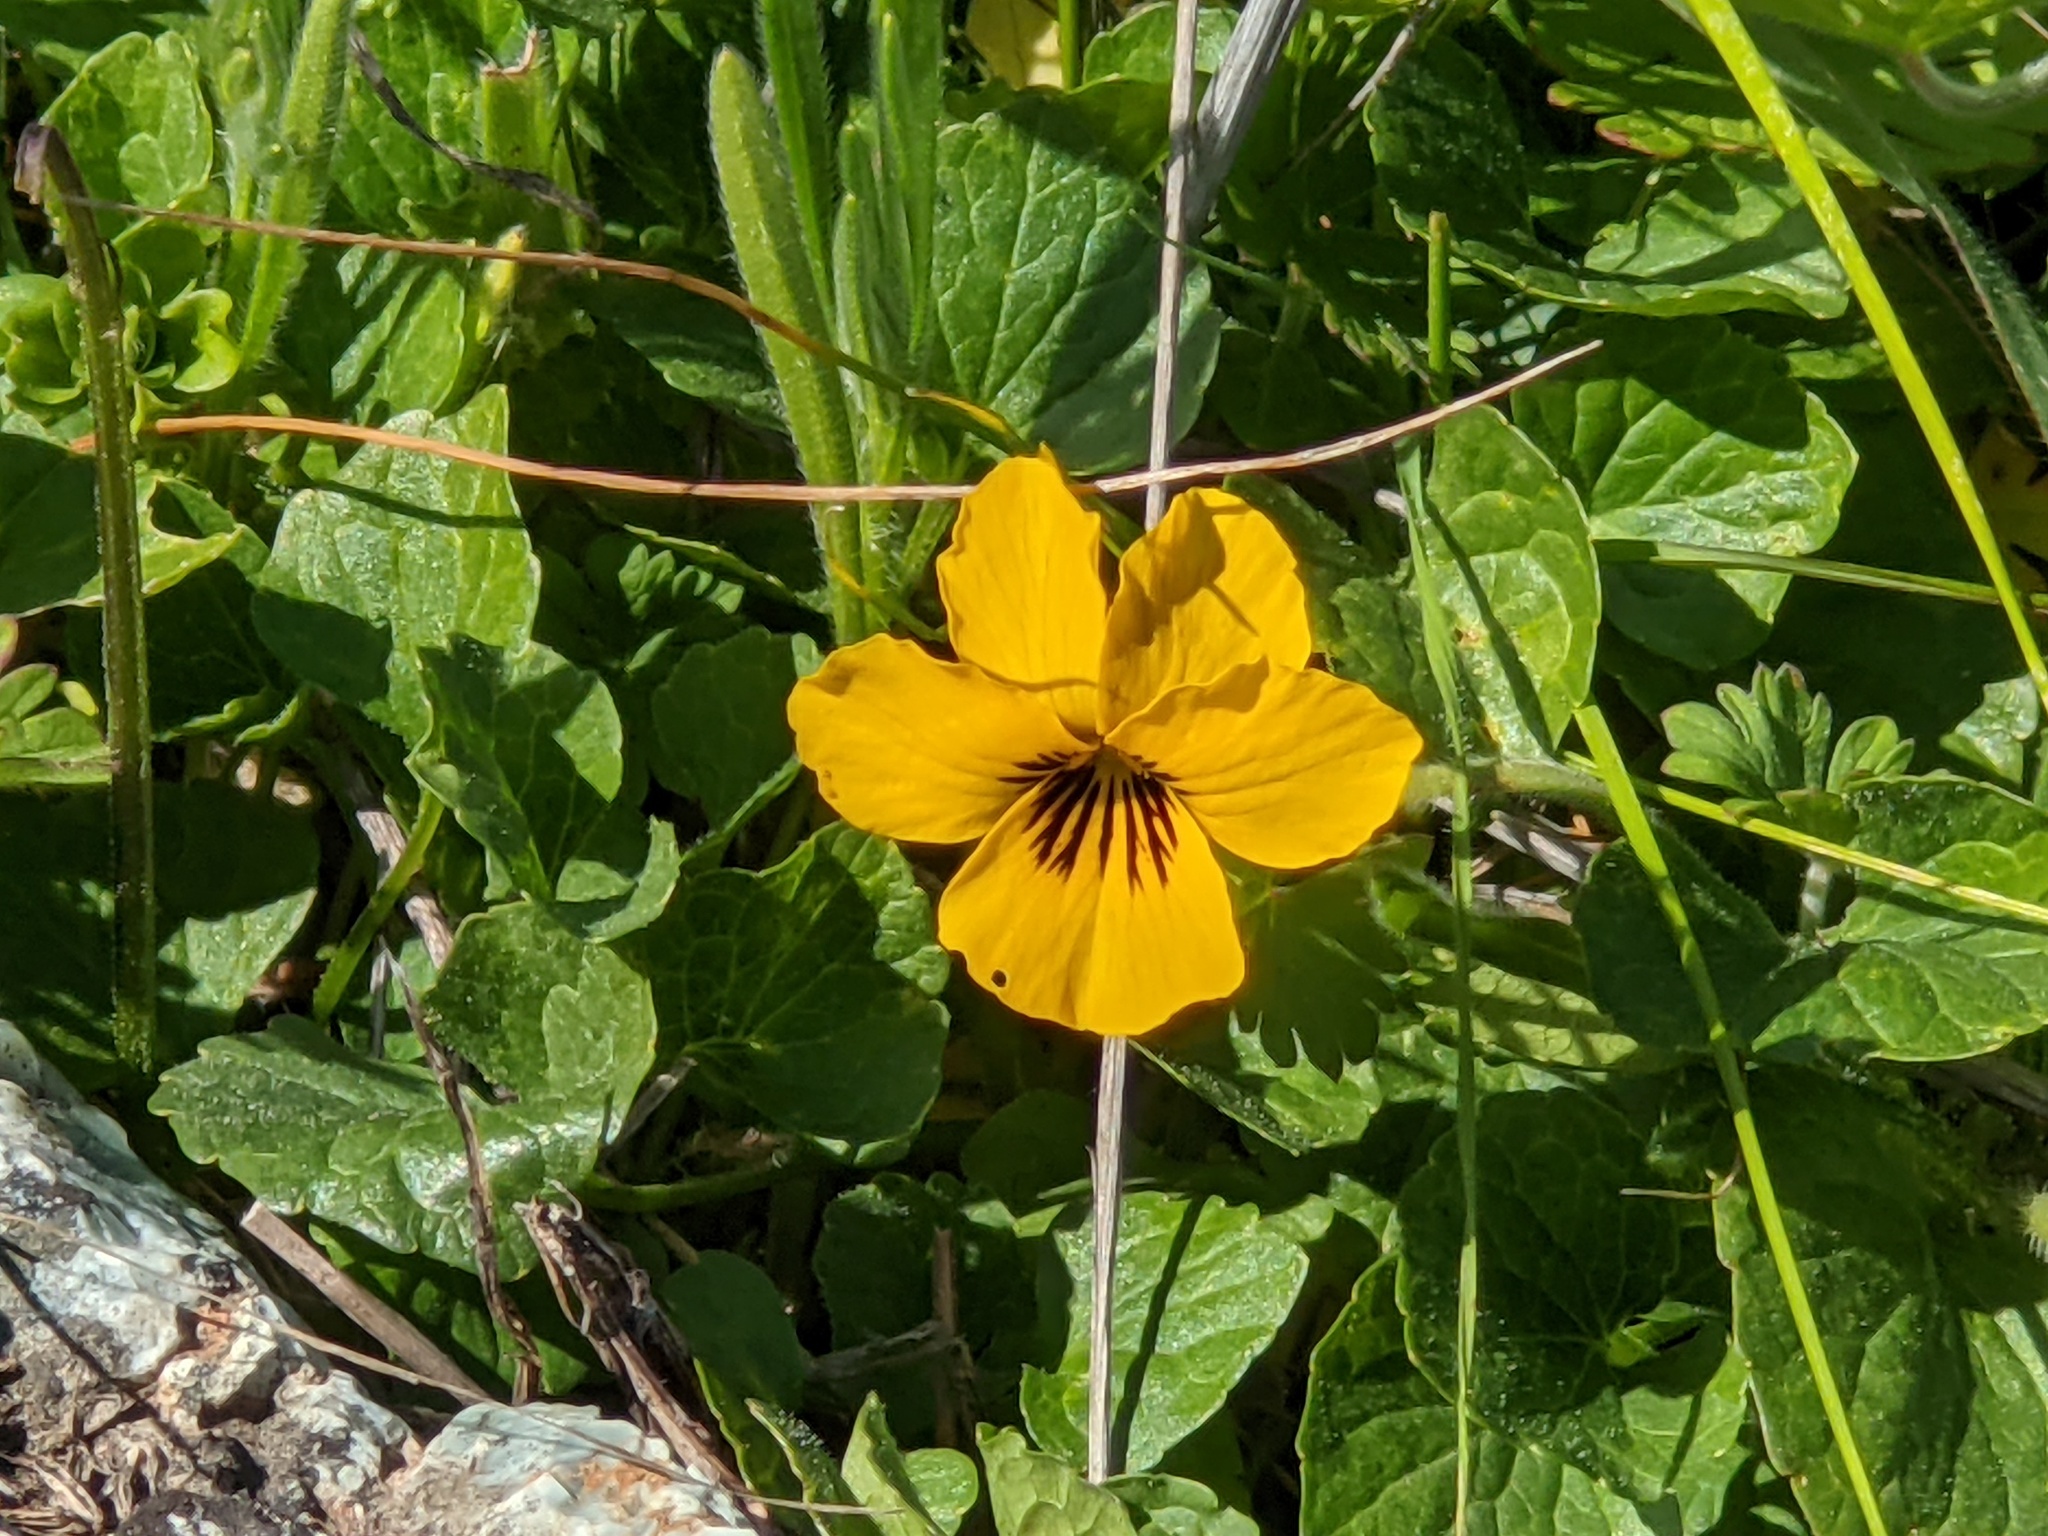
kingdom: Plantae
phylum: Tracheophyta
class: Magnoliopsida
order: Malpighiales
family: Violaceae
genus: Viola
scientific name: Viola pedunculata
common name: California golden violet
